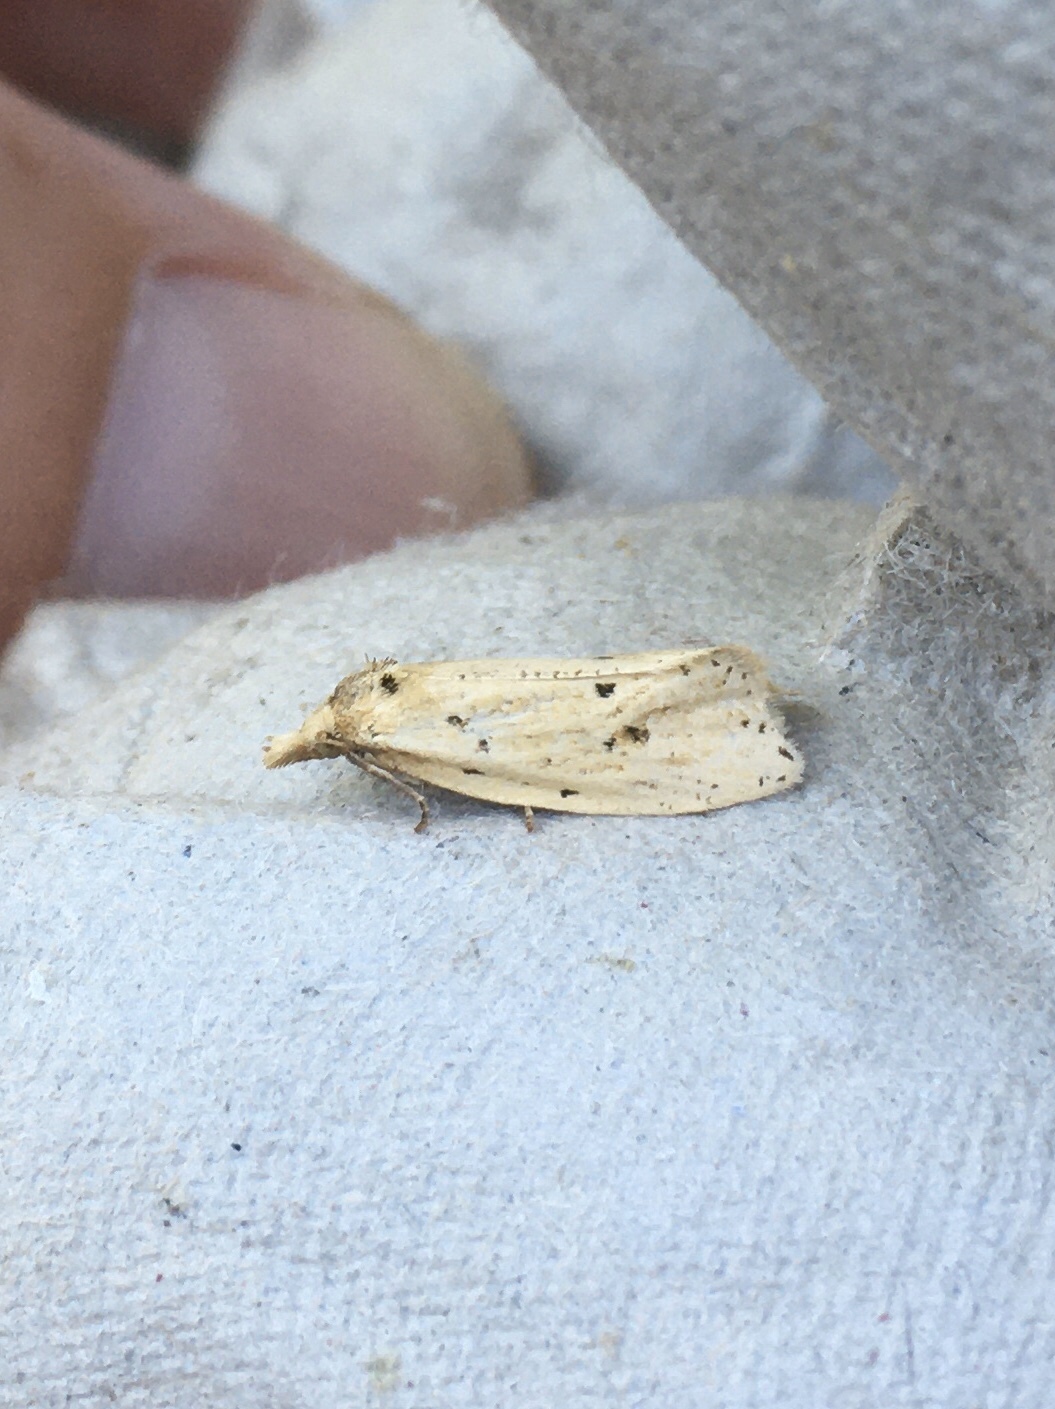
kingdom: Animalia
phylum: Arthropoda
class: Insecta
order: Lepidoptera
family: Tortricidae
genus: Aethes
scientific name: Aethes atomosana
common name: Two-spotted aethes
